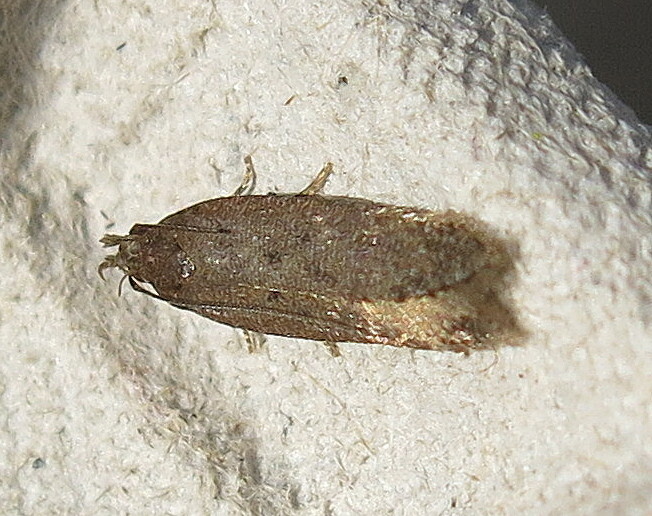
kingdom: Animalia
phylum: Arthropoda
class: Insecta
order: Lepidoptera
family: Gelechiidae
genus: Bryotropha
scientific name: Bryotropha terrella
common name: Cinerous groundling
